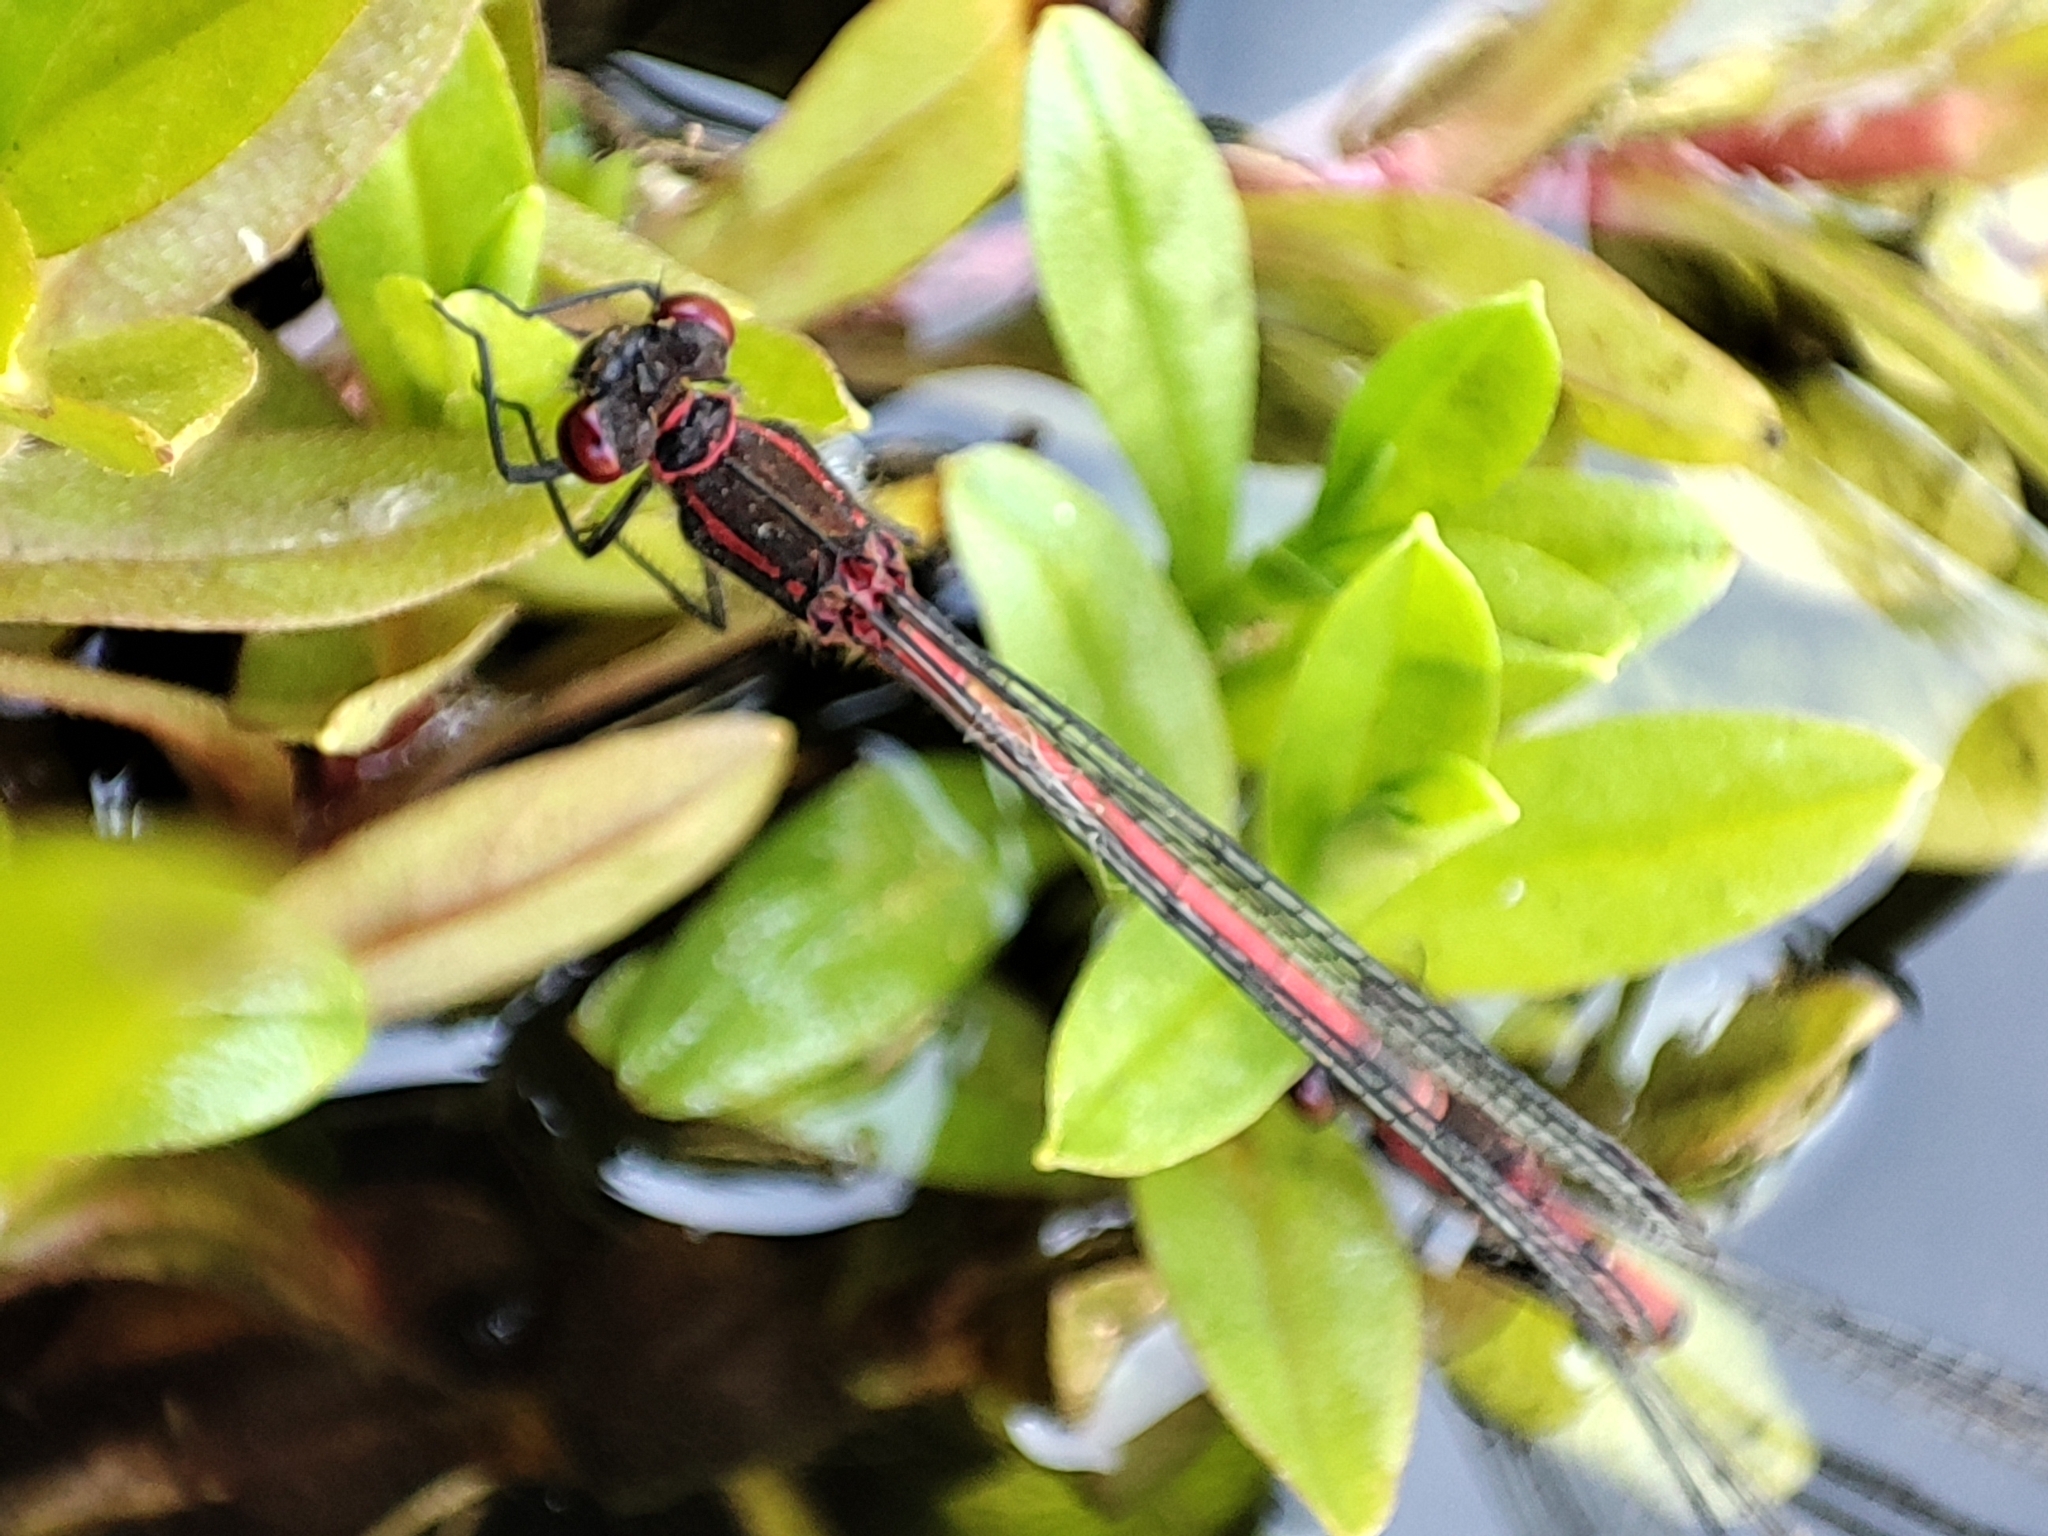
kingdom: Animalia
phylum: Arthropoda
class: Insecta
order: Odonata
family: Coenagrionidae
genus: Pyrrhosoma
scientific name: Pyrrhosoma nymphula
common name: Large red damsel
